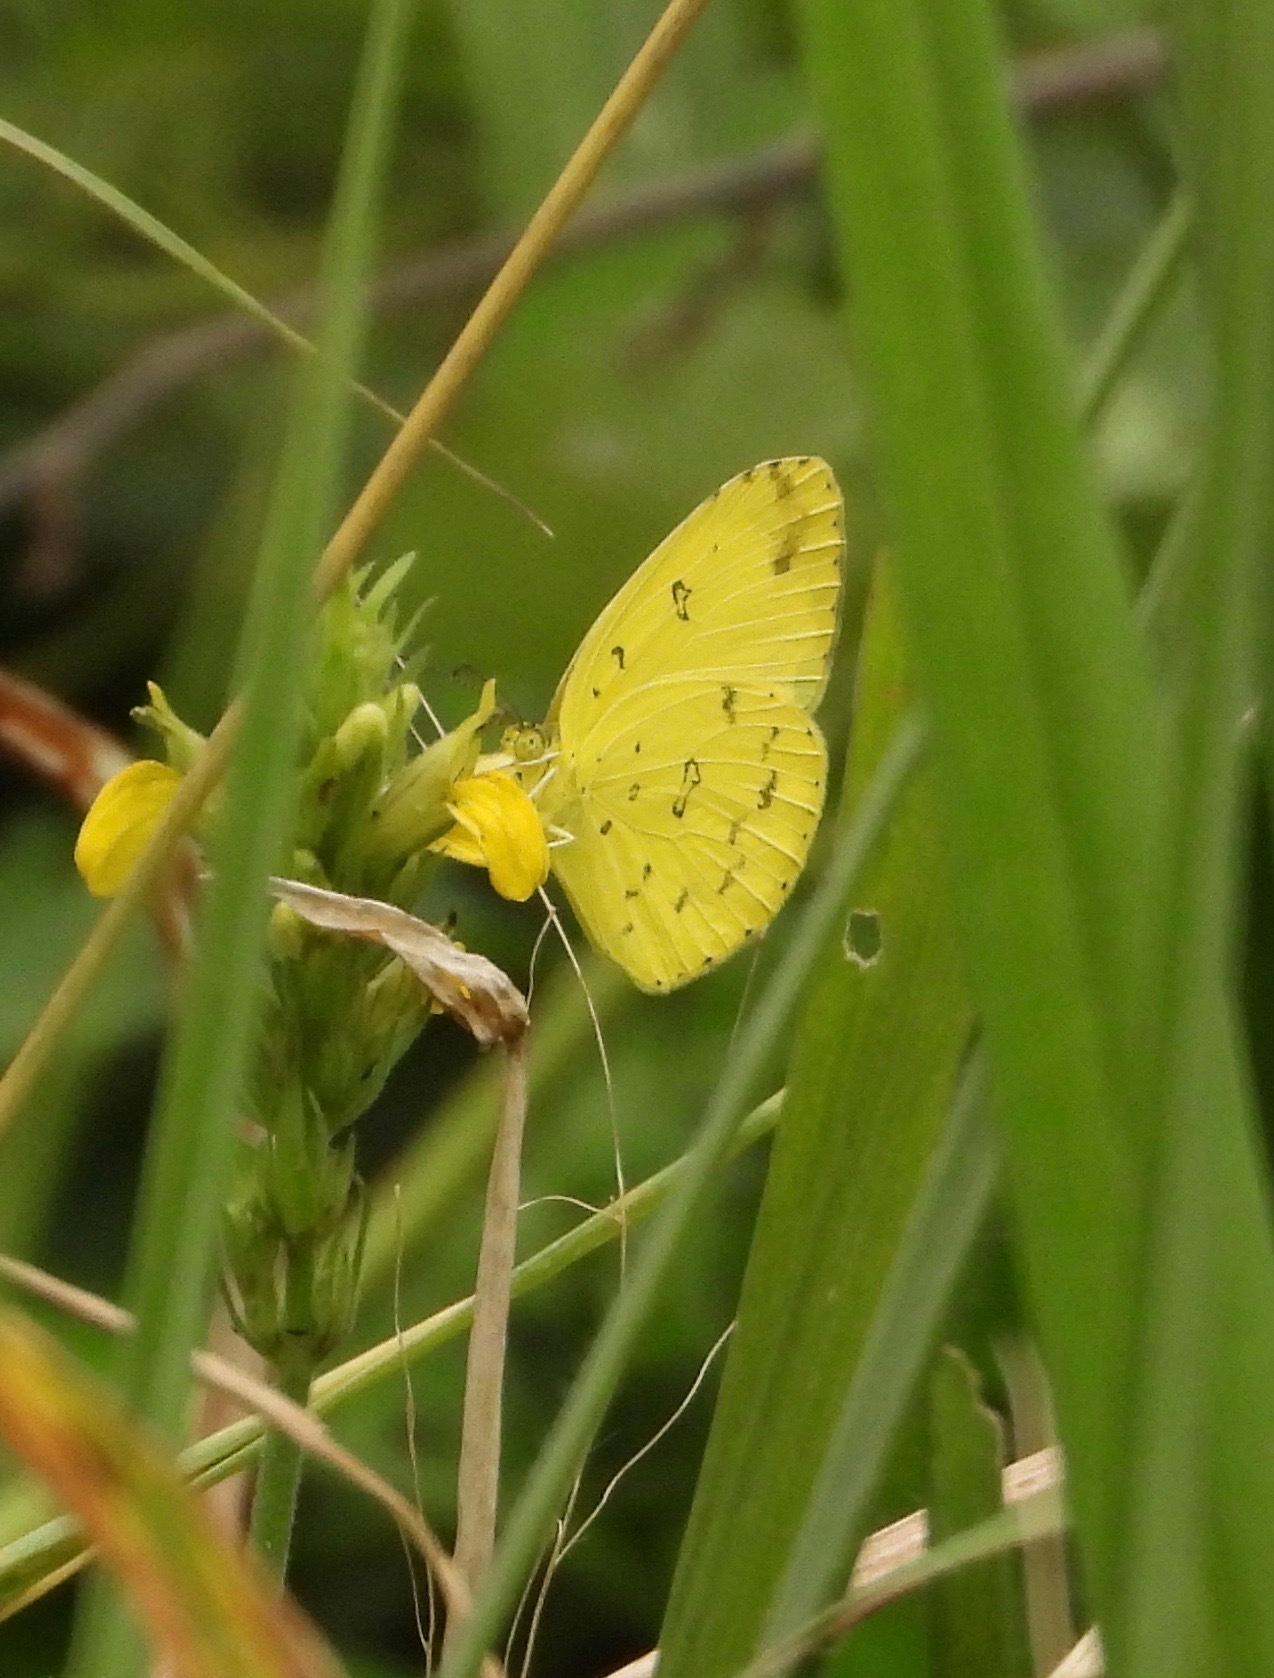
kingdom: Animalia
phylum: Arthropoda
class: Insecta
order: Lepidoptera
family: Pieridae
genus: Eurema
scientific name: Eurema hecabe
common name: Pale grass yellow
